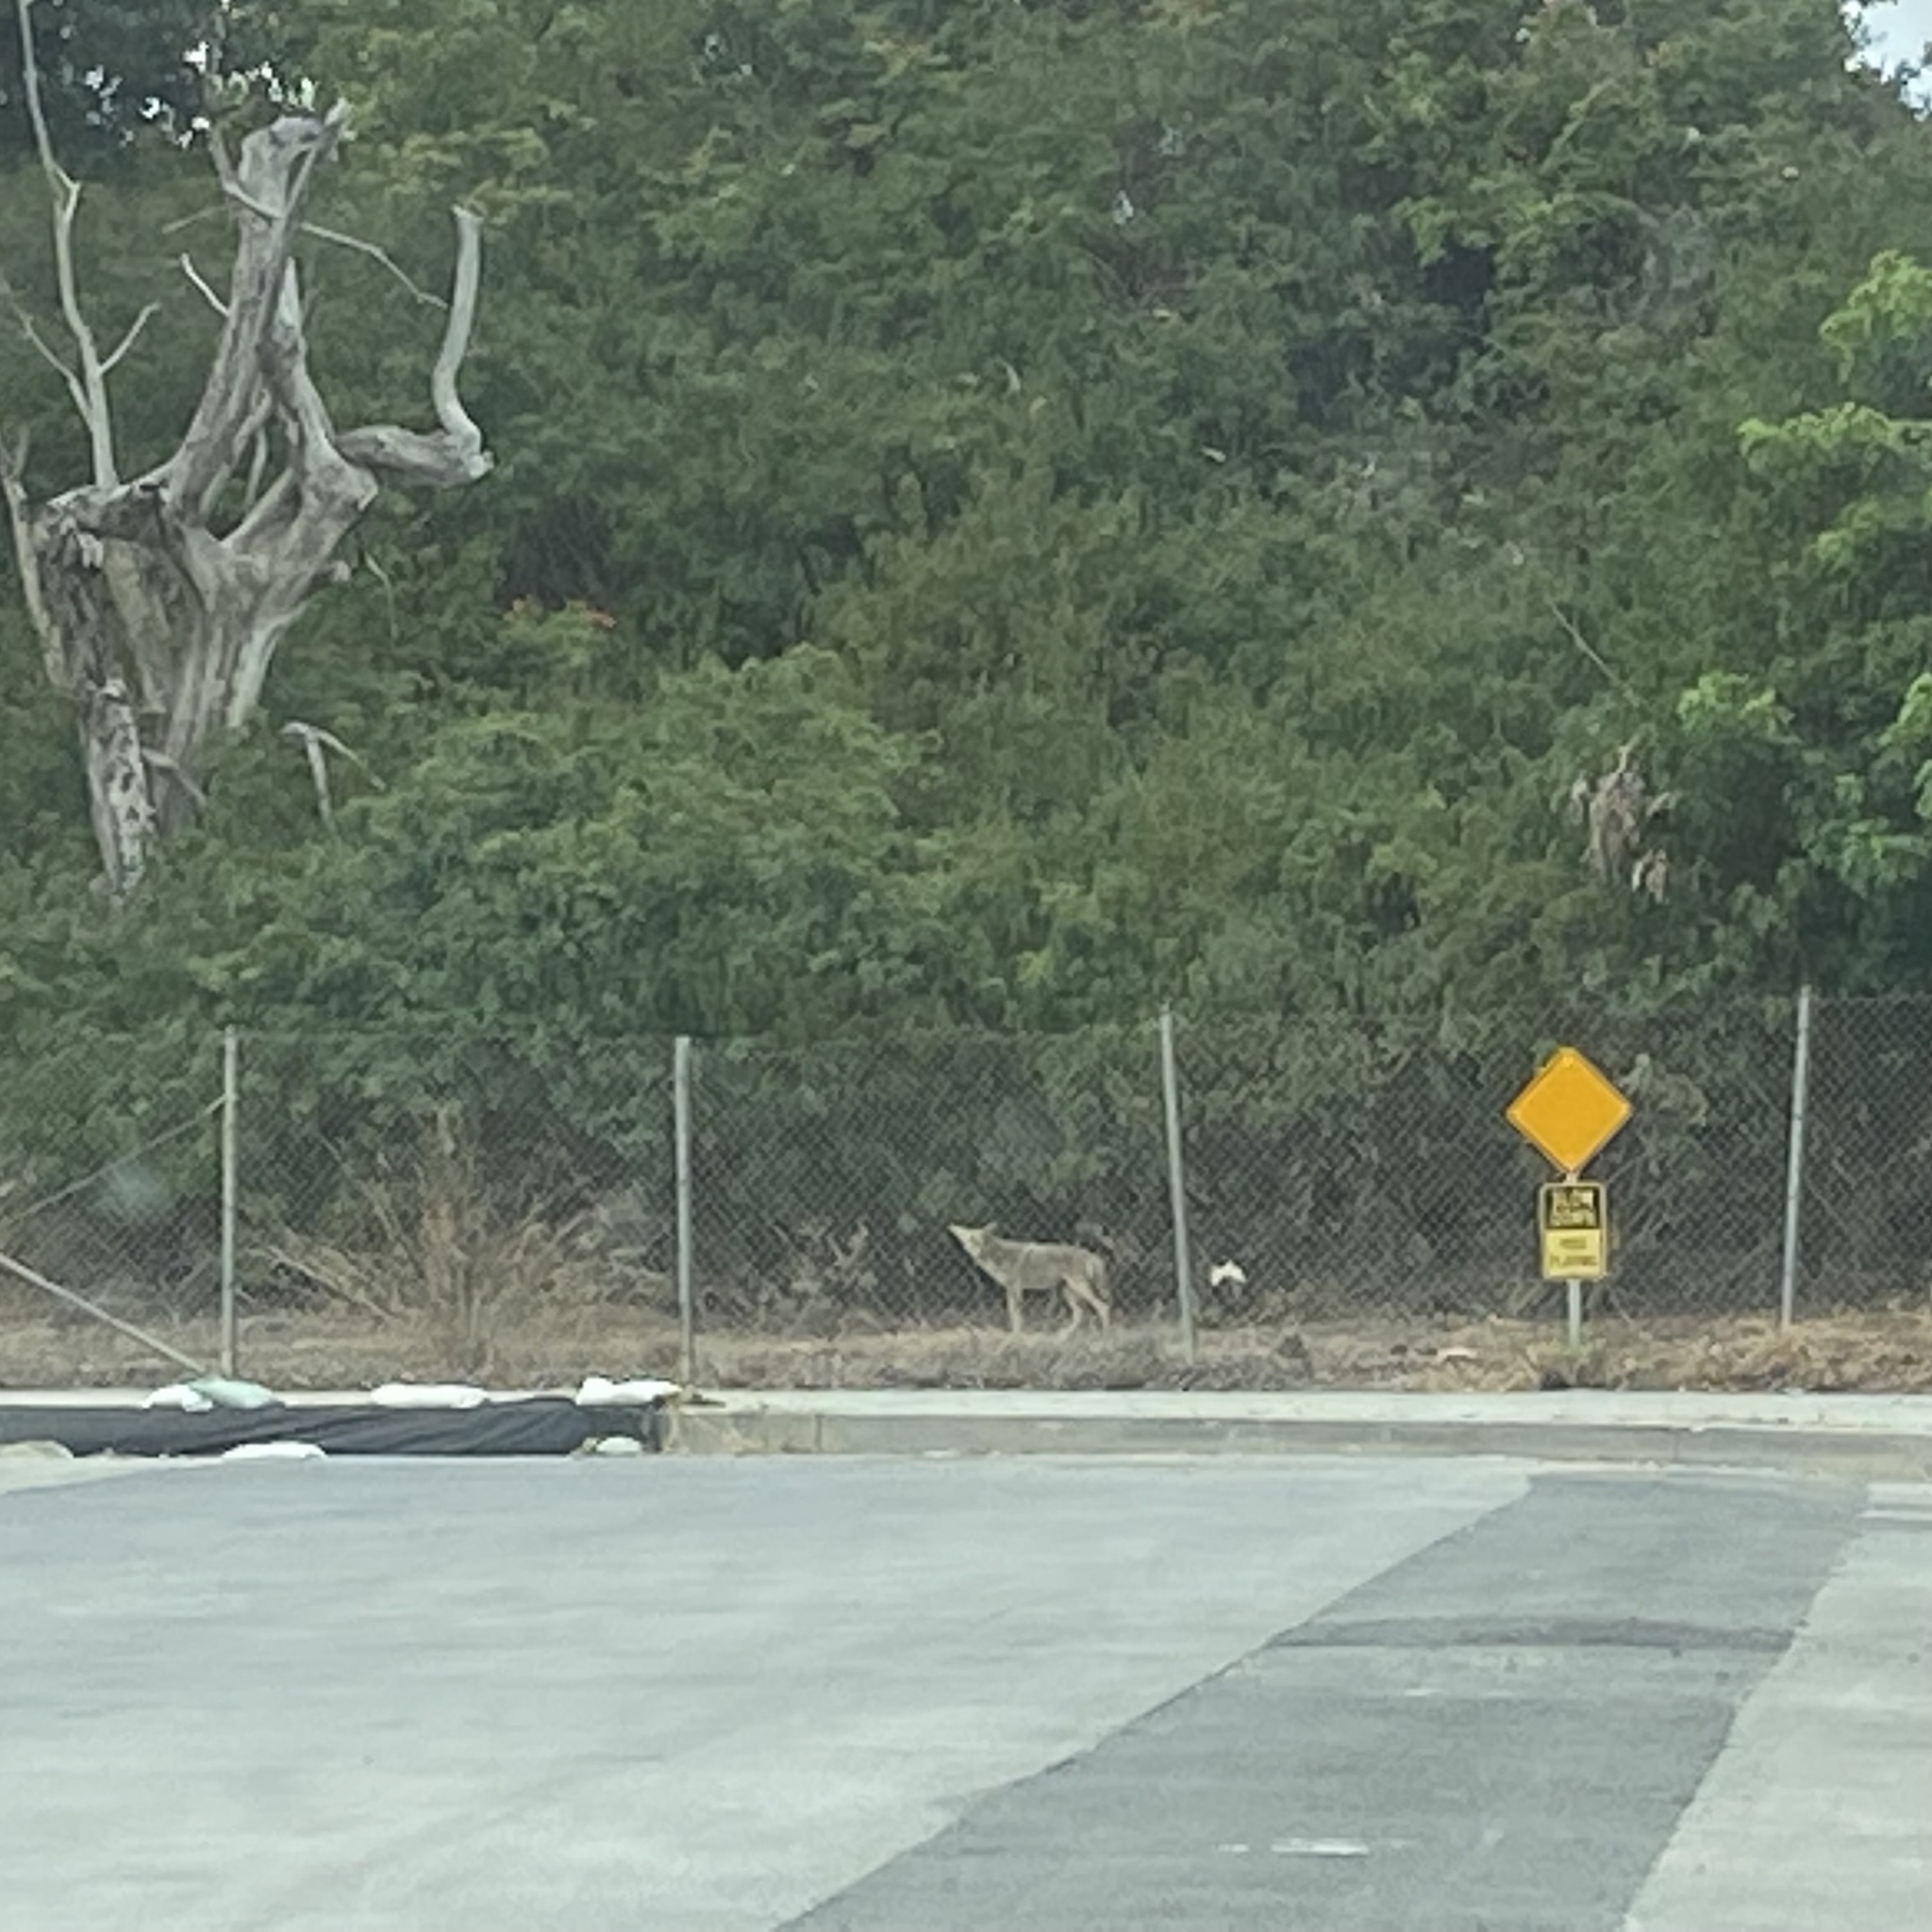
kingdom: Animalia
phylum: Chordata
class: Mammalia
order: Carnivora
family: Canidae
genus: Canis
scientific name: Canis latrans
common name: Coyote
